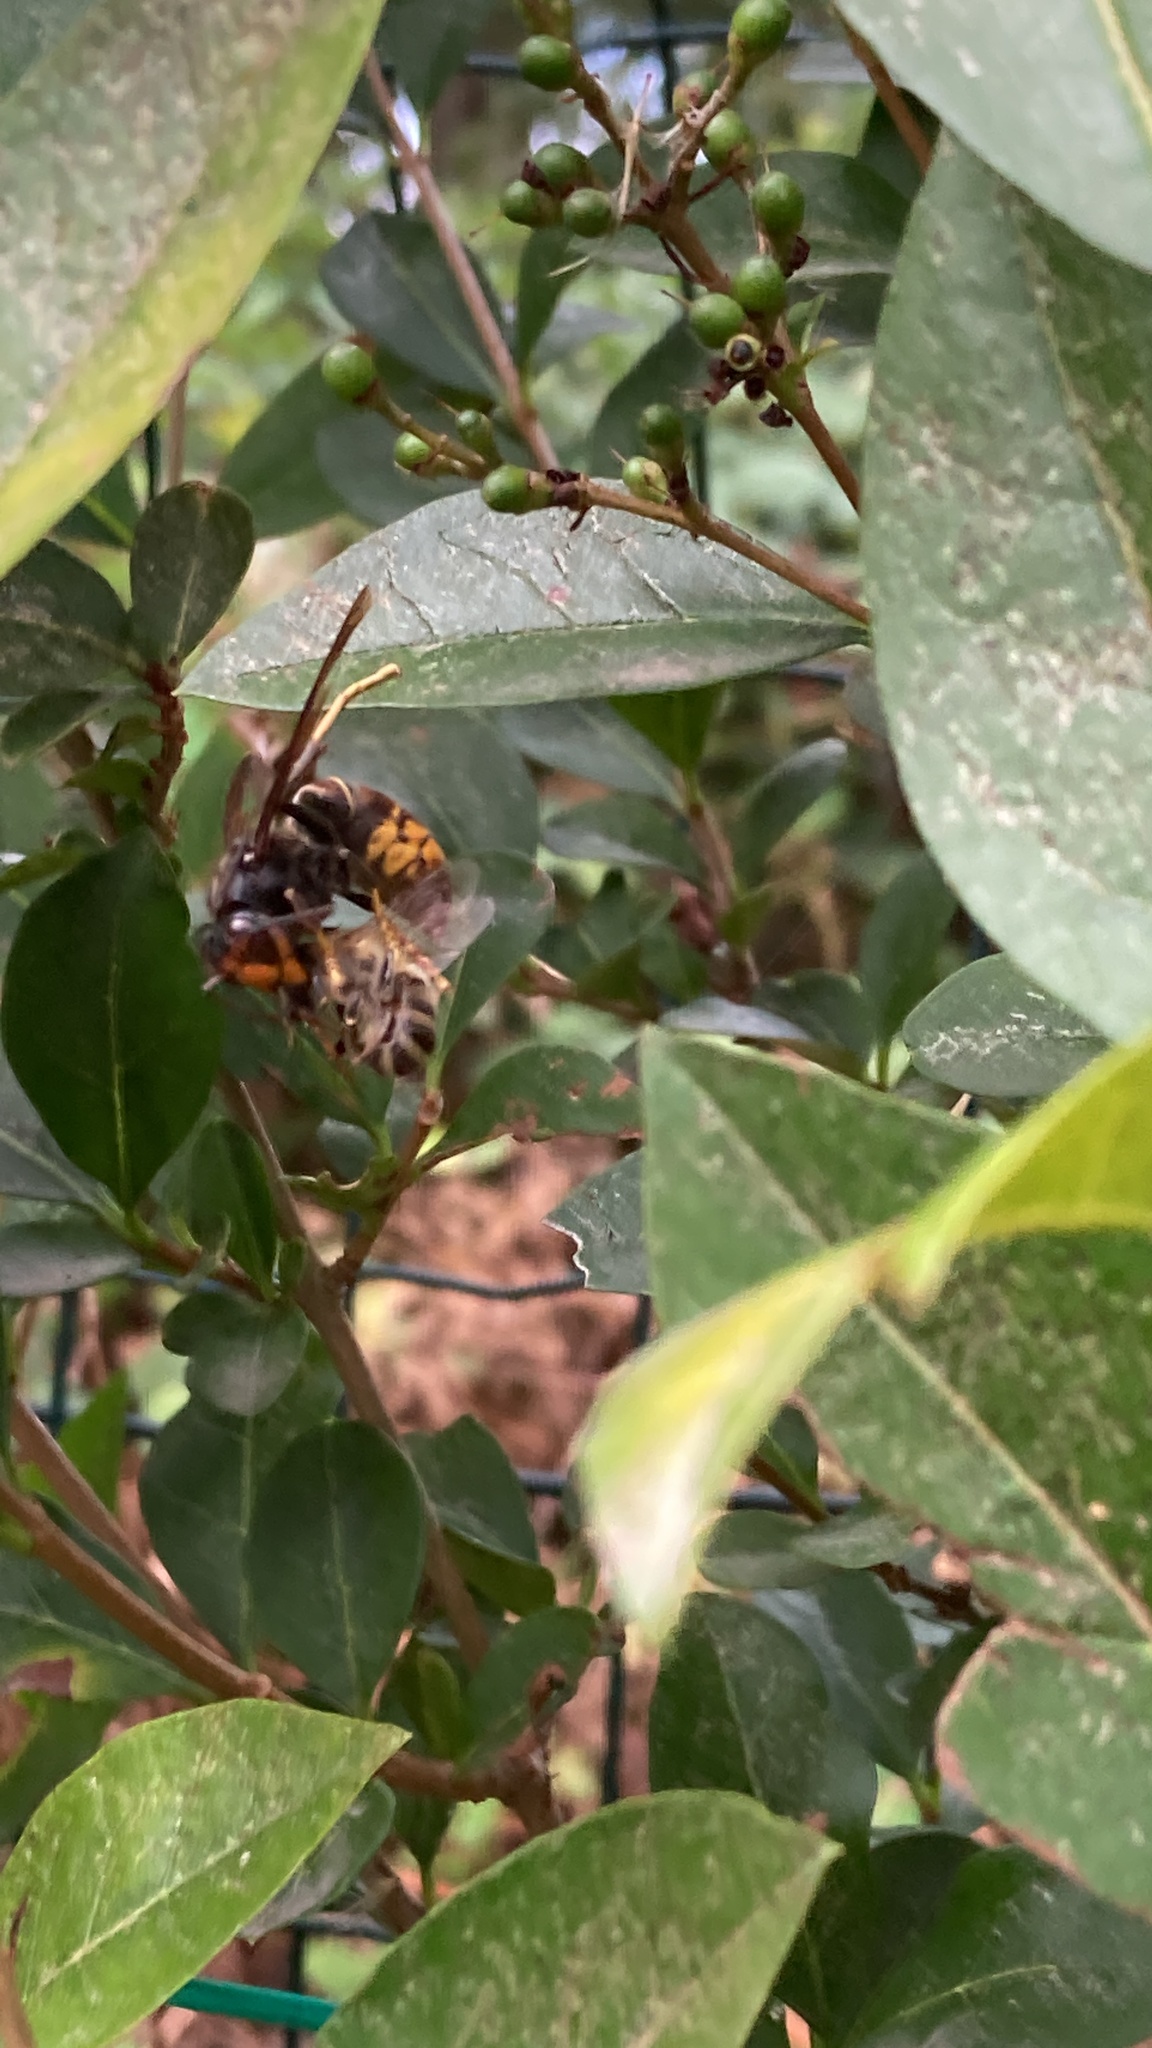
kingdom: Animalia
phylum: Arthropoda
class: Insecta
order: Hymenoptera
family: Vespidae
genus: Vespa
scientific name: Vespa velutina
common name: Asian hornet
